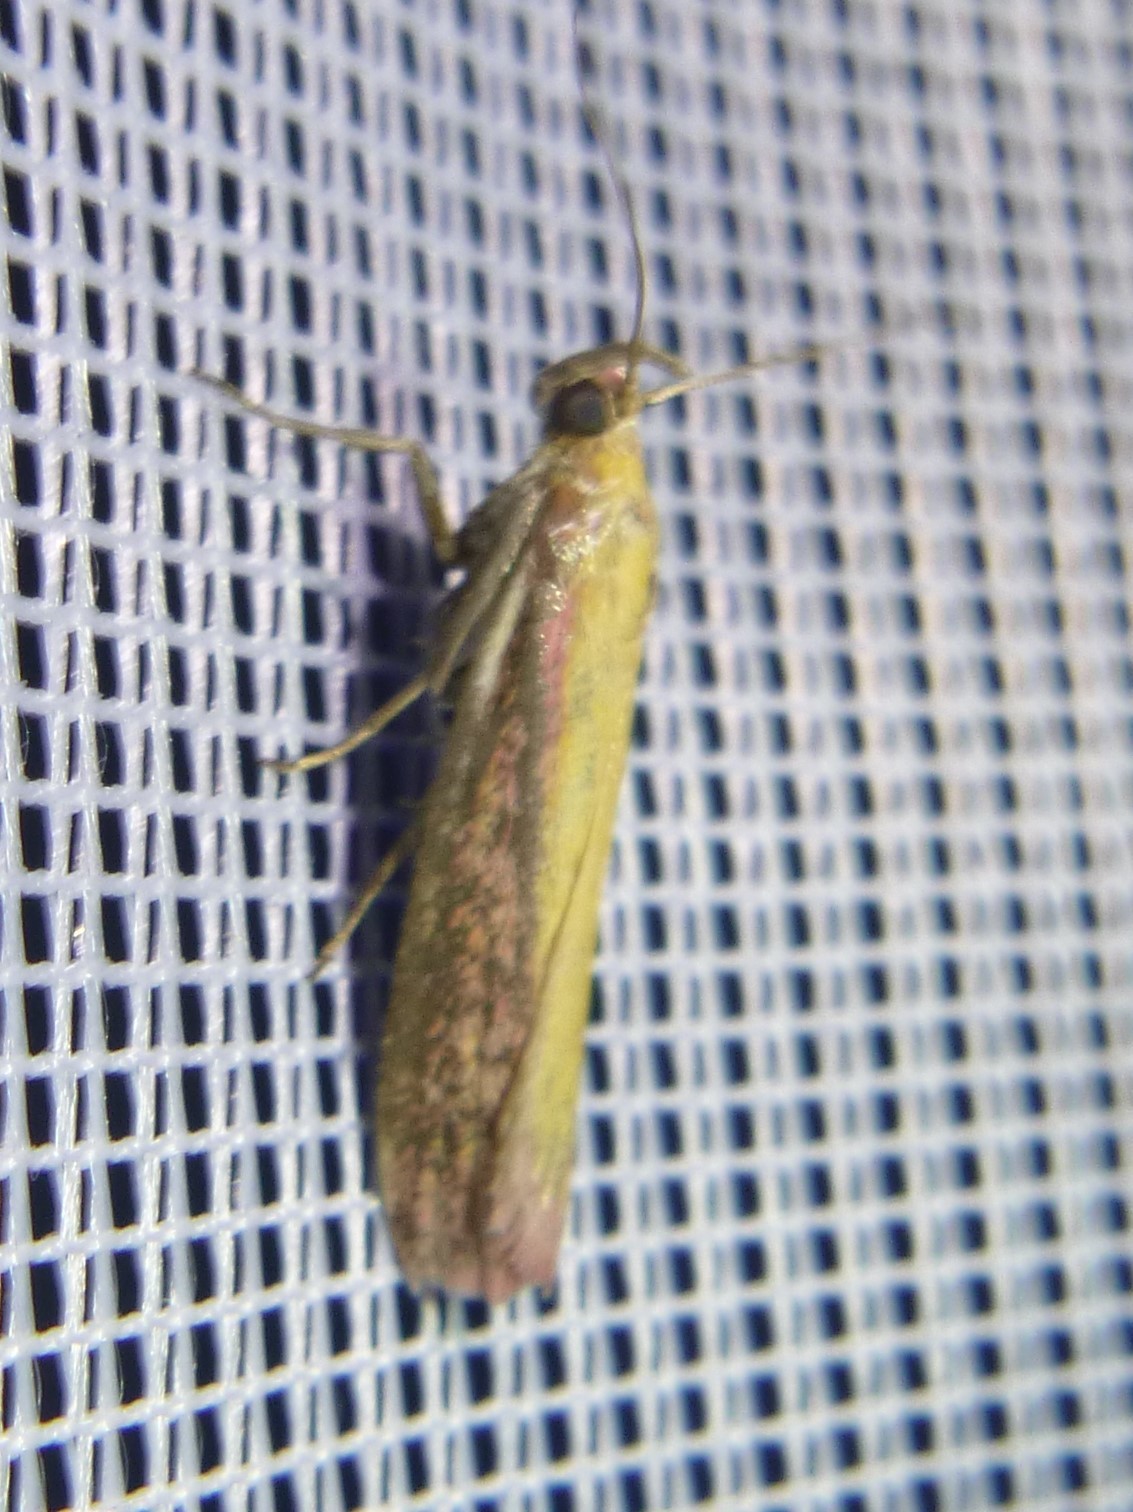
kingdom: Animalia
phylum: Arthropoda
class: Insecta
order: Lepidoptera
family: Pyralidae
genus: Oncocera
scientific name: Oncocera semirubella
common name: Rosy-striped knot-horn
